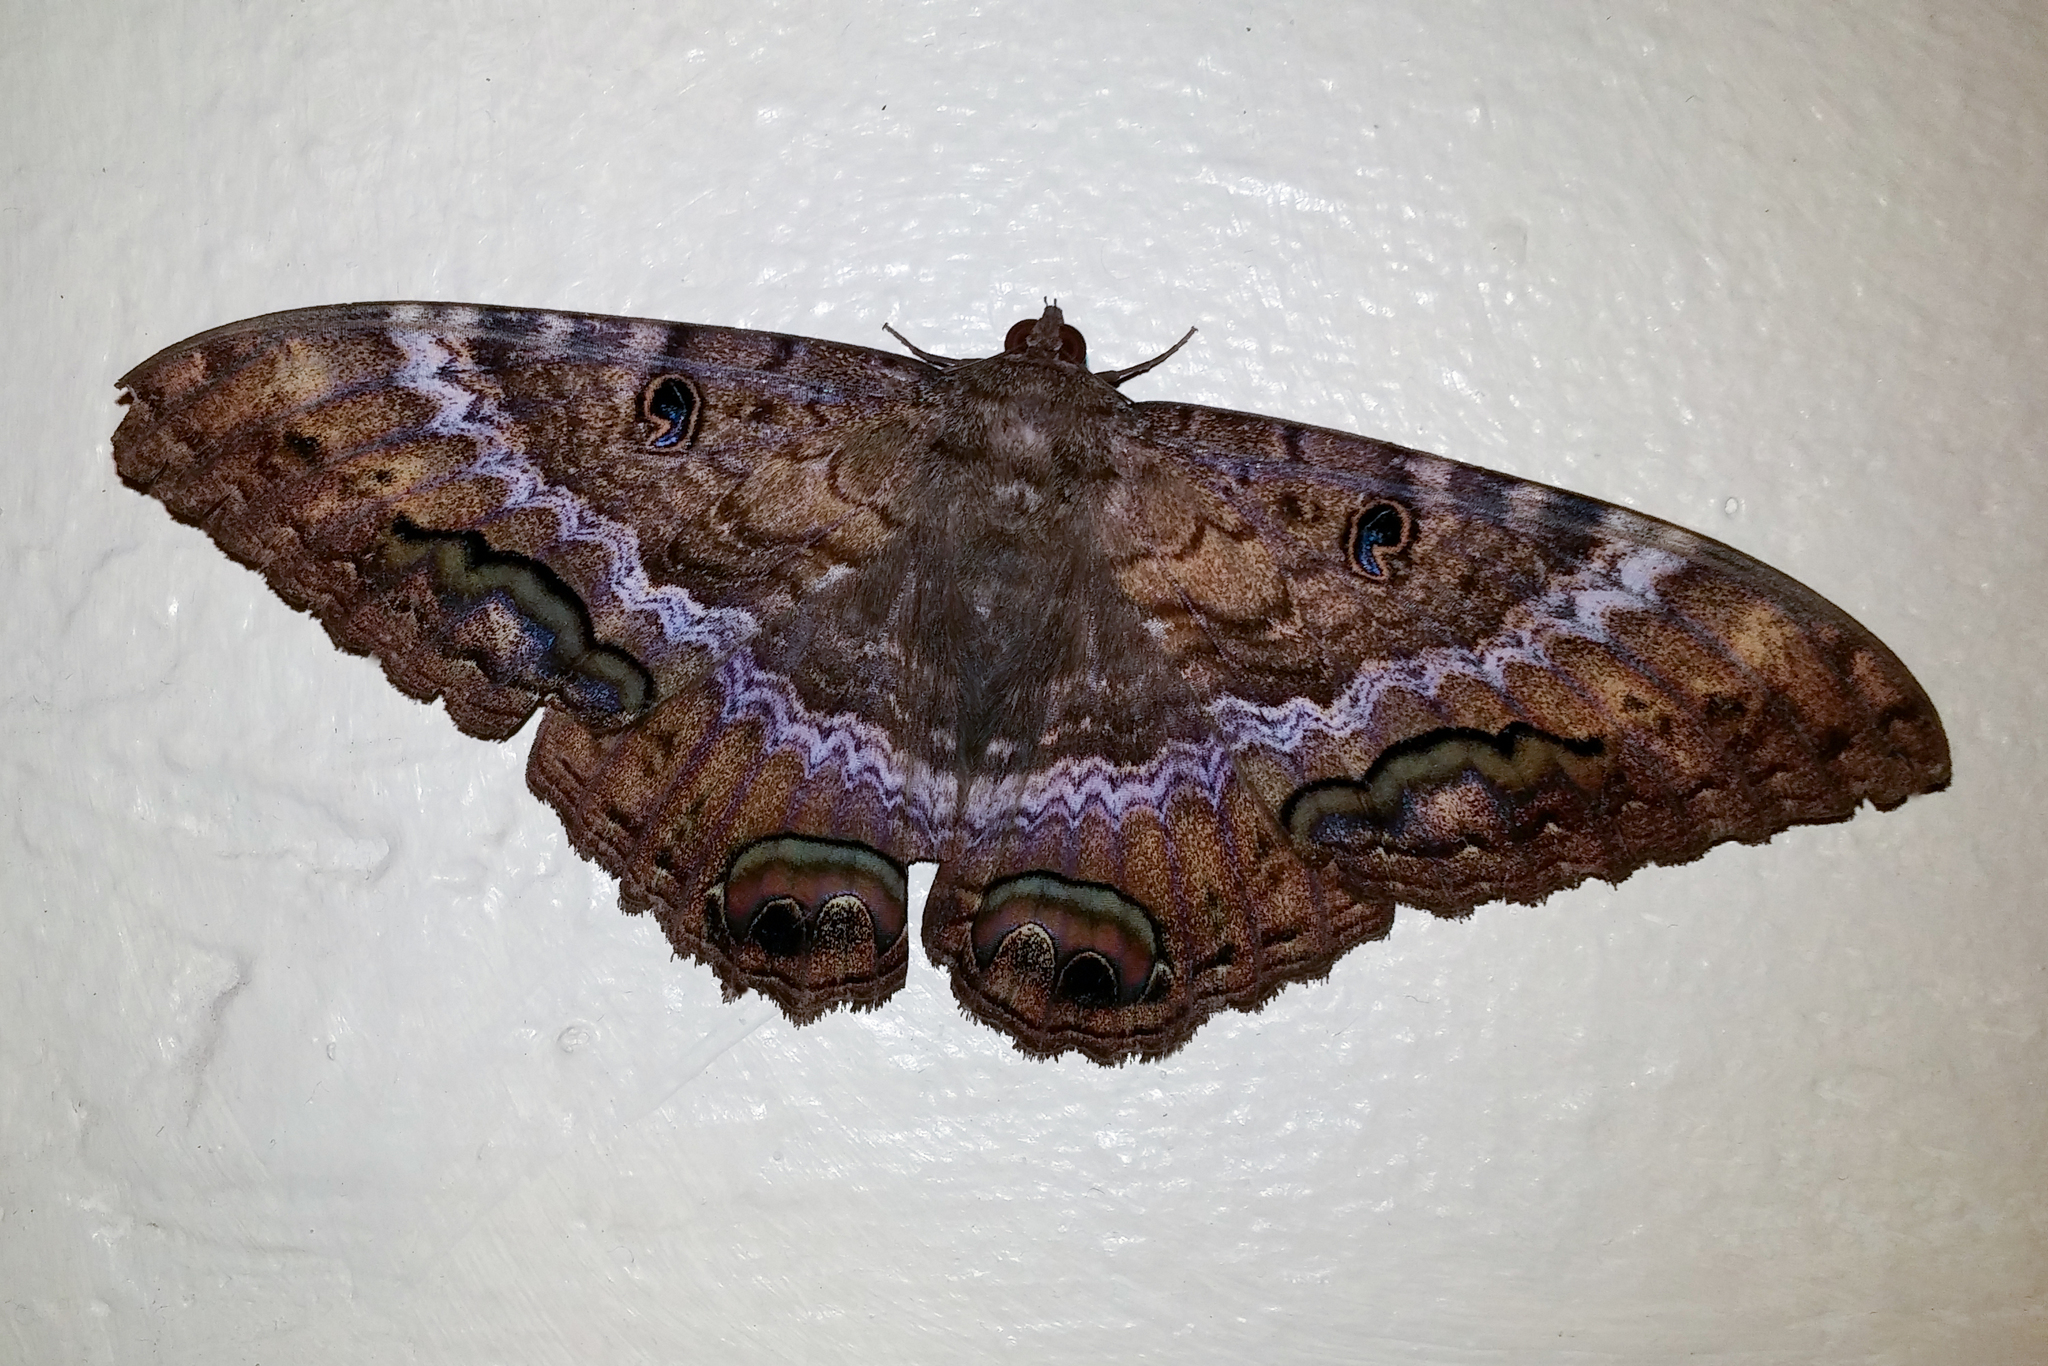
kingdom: Animalia
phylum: Arthropoda
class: Insecta
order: Lepidoptera
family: Erebidae
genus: Ascalapha
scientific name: Ascalapha odorata
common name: Black witch
